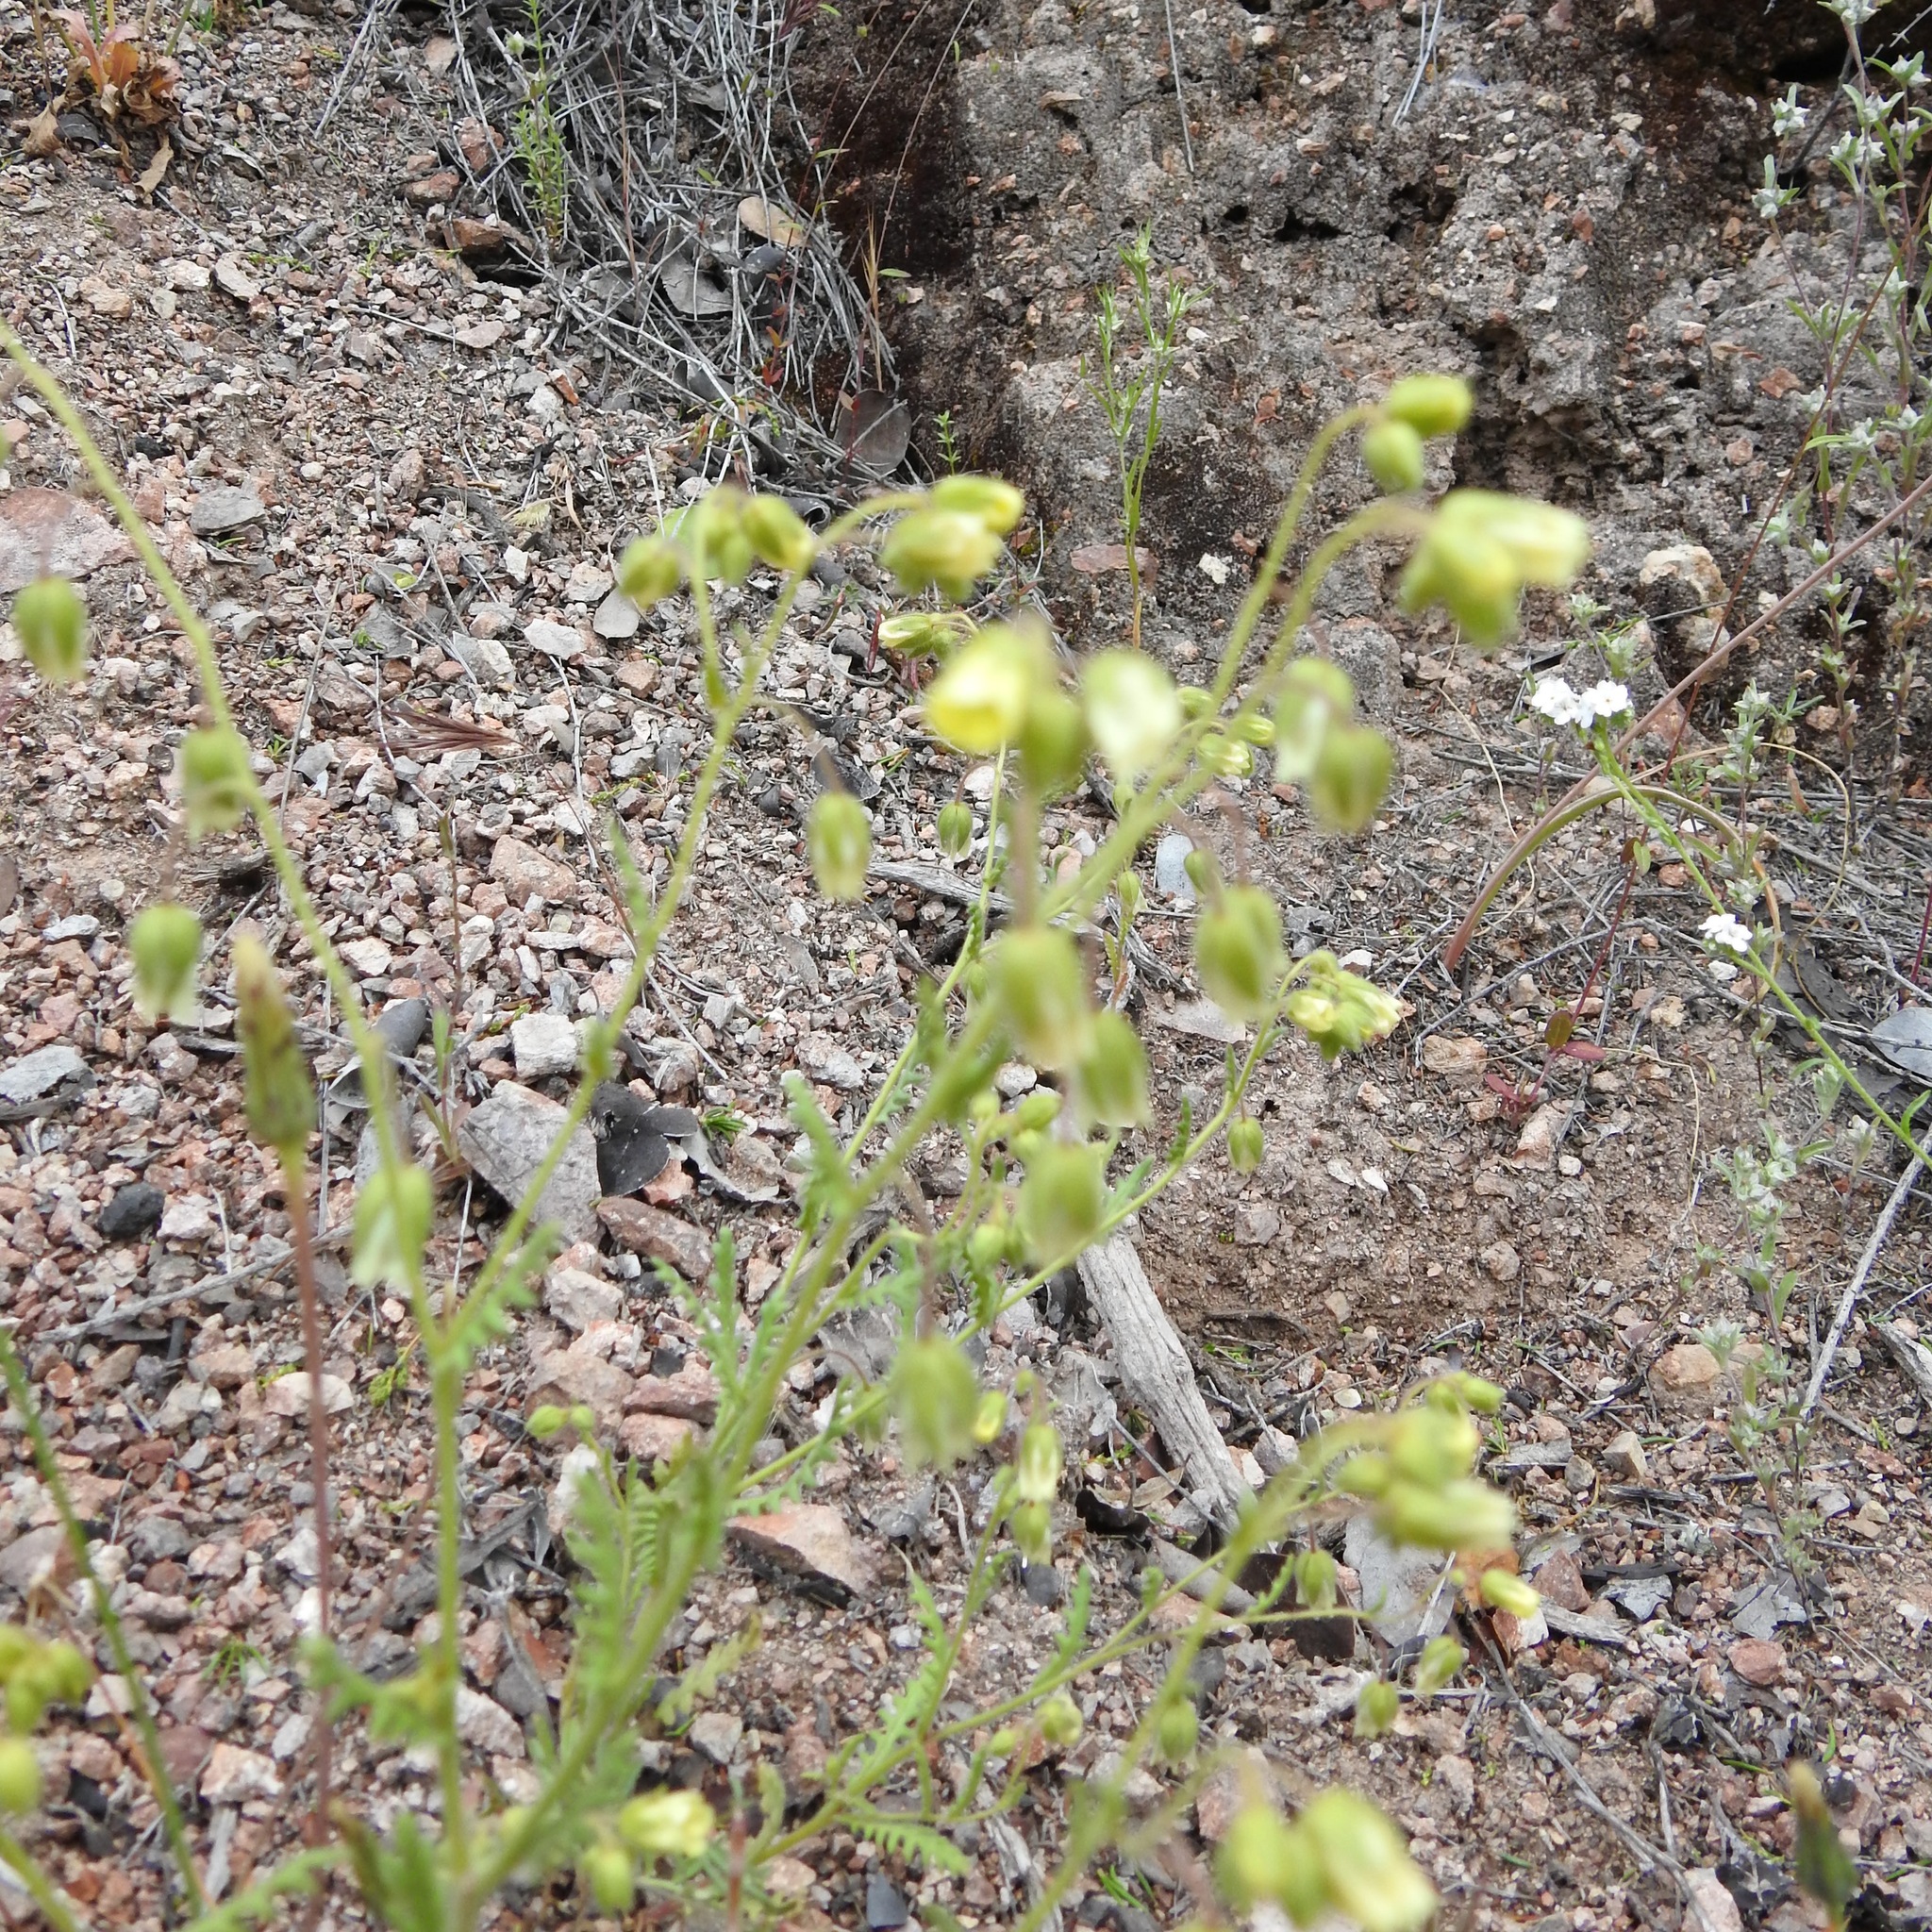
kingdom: Plantae
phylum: Tracheophyta
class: Magnoliopsida
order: Boraginales
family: Hydrophyllaceae
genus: Emmenanthe
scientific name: Emmenanthe penduliflora
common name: Whispering-bells
